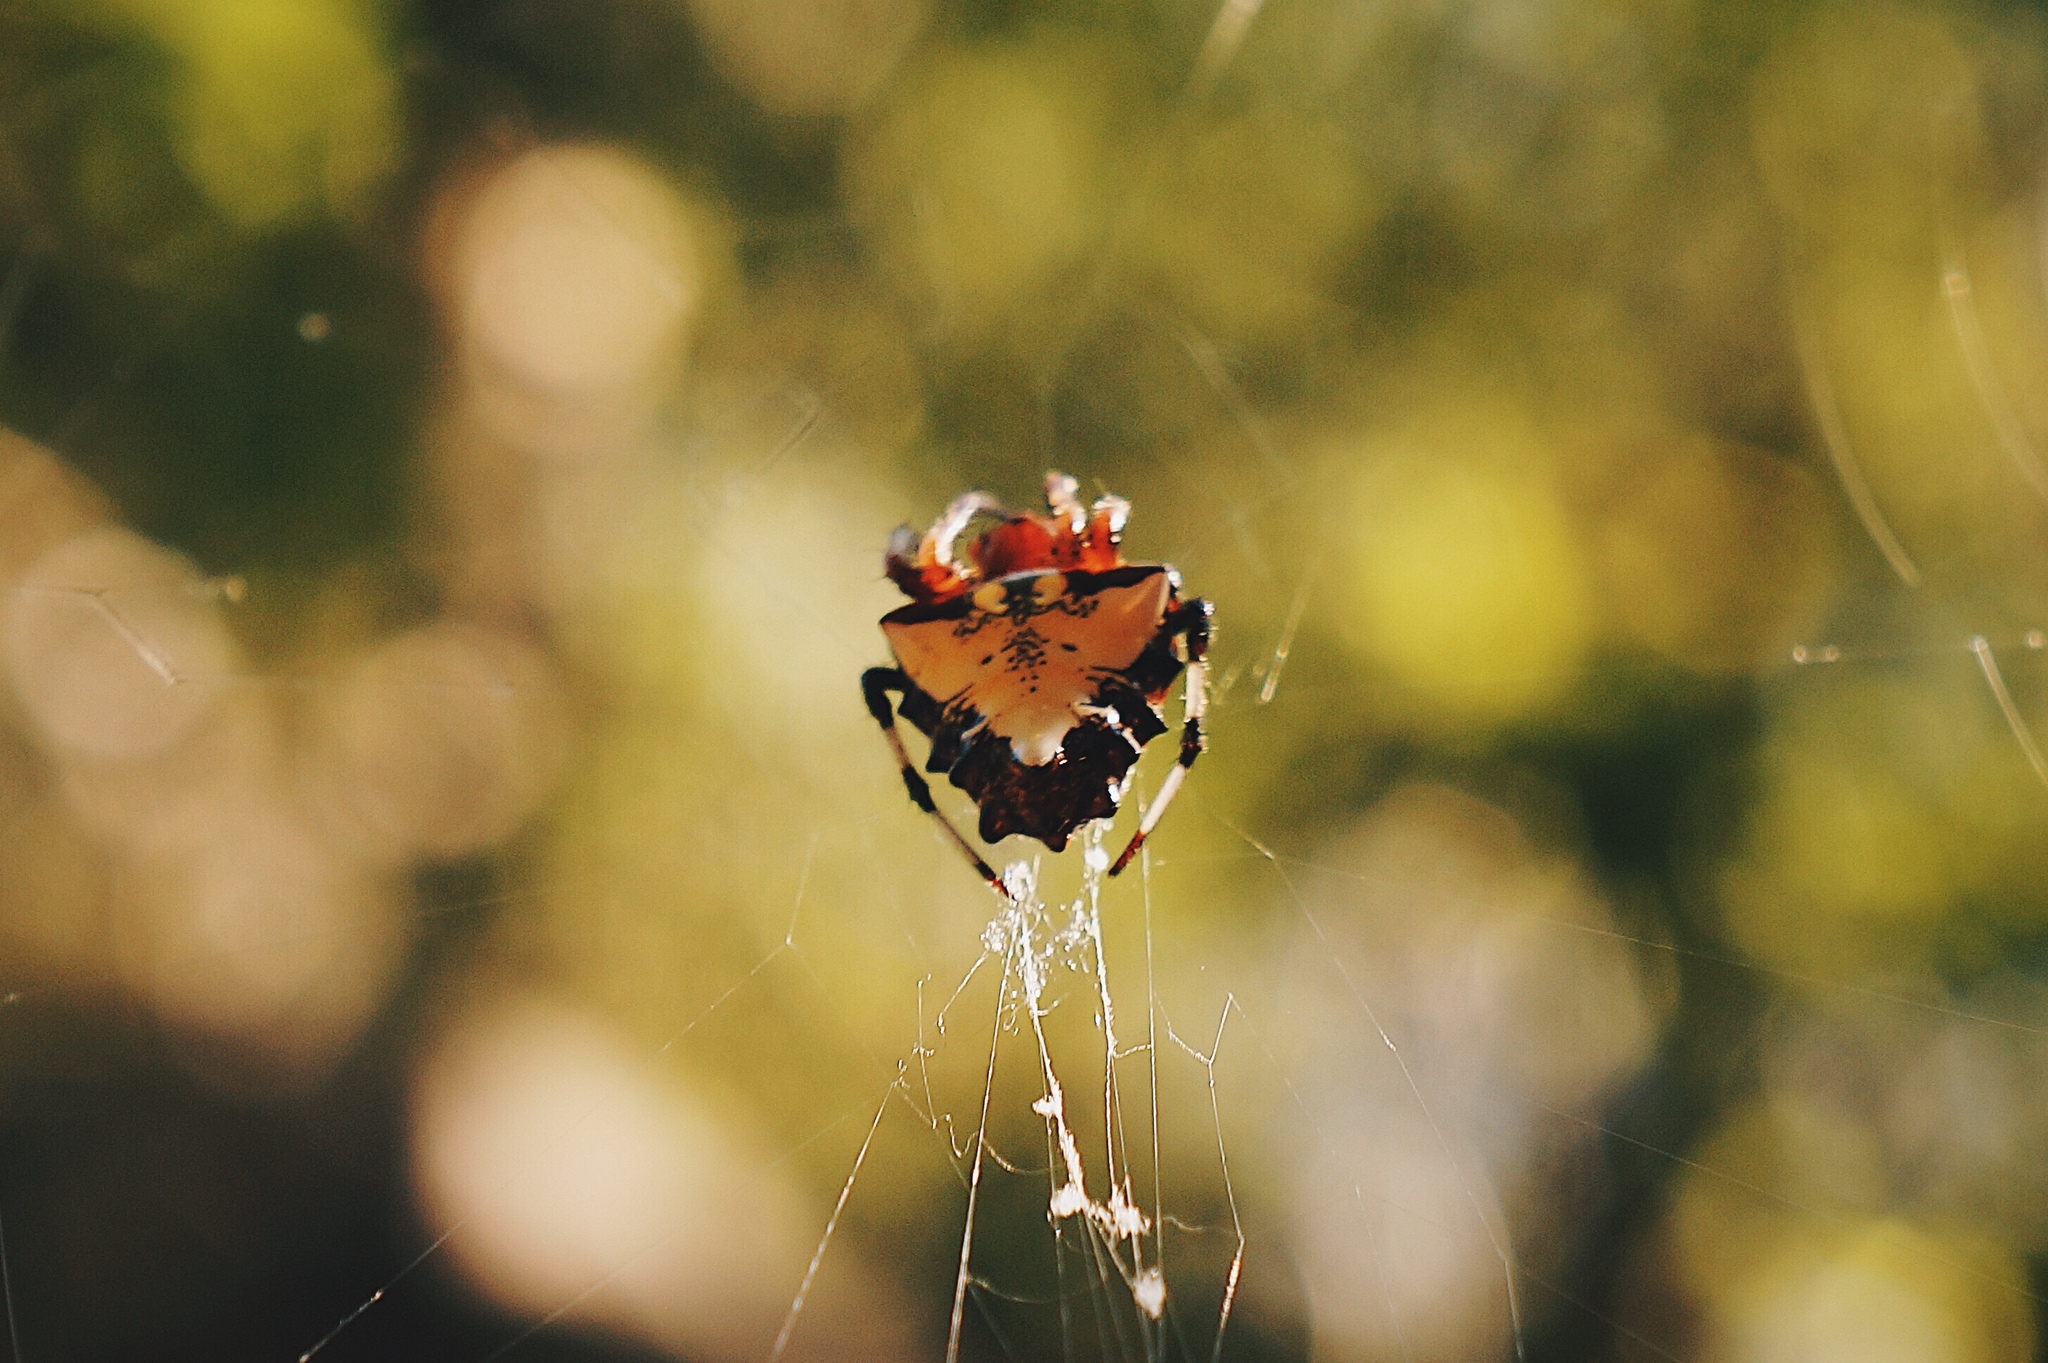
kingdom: Animalia
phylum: Arthropoda
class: Arachnida
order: Araneae
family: Araneidae
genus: Verrucosa
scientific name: Verrucosa arenata
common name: Orb weavers
